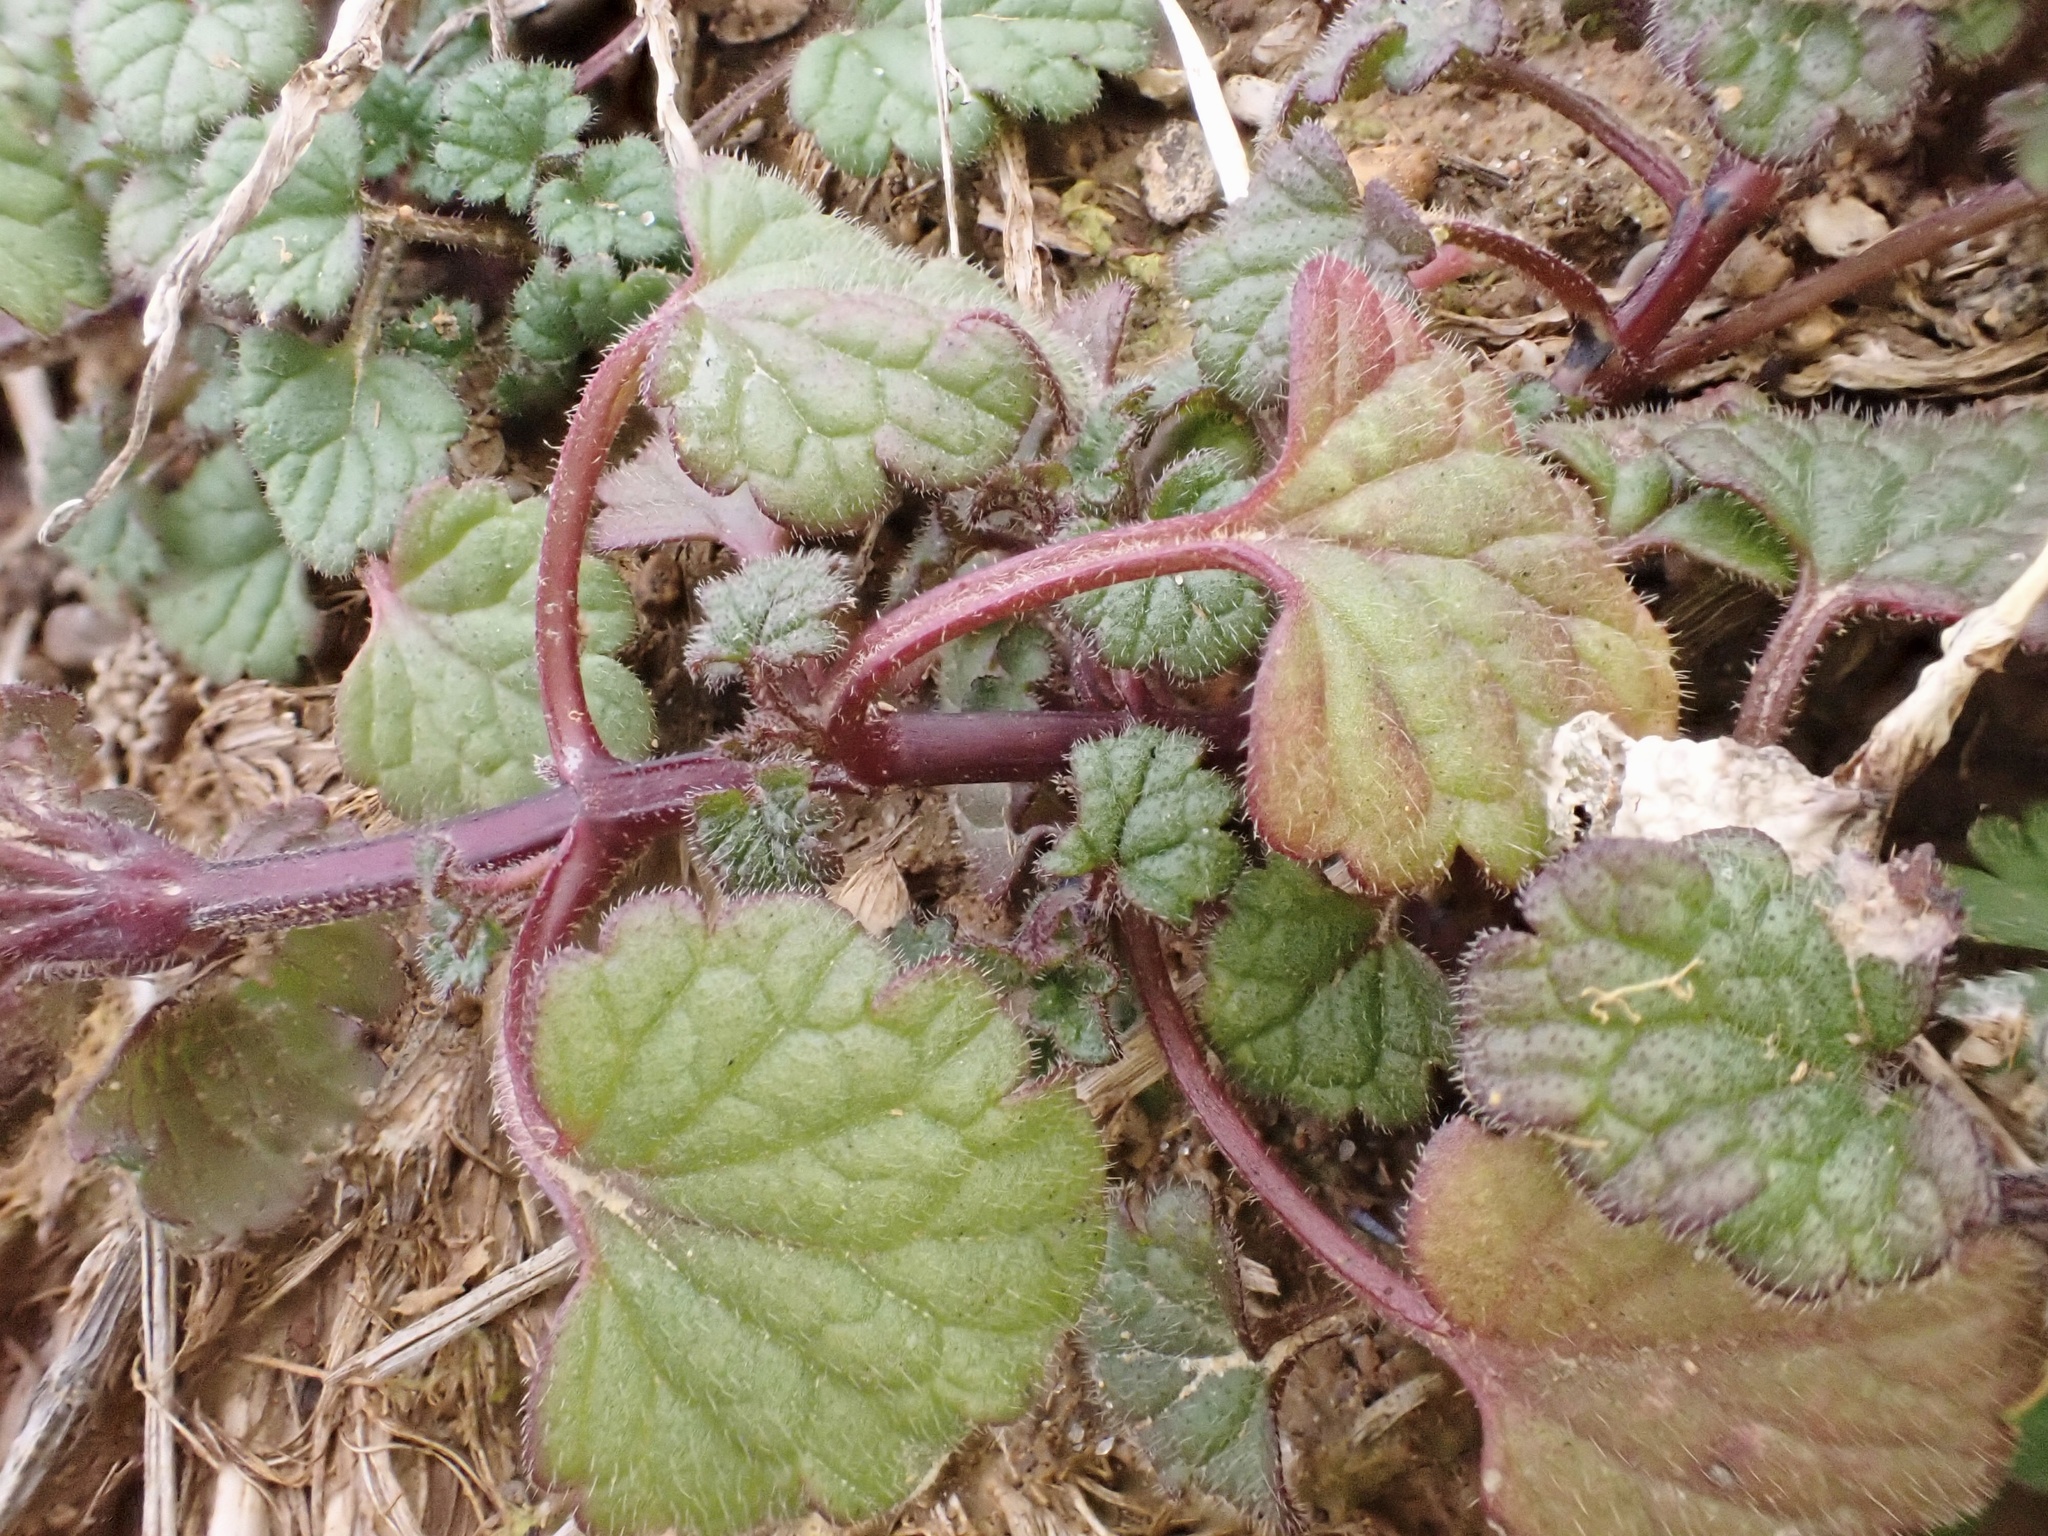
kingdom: Plantae
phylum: Tracheophyta
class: Magnoliopsida
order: Lamiales
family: Lamiaceae
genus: Lamium
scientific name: Lamium amplexicaule
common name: Henbit dead-nettle
